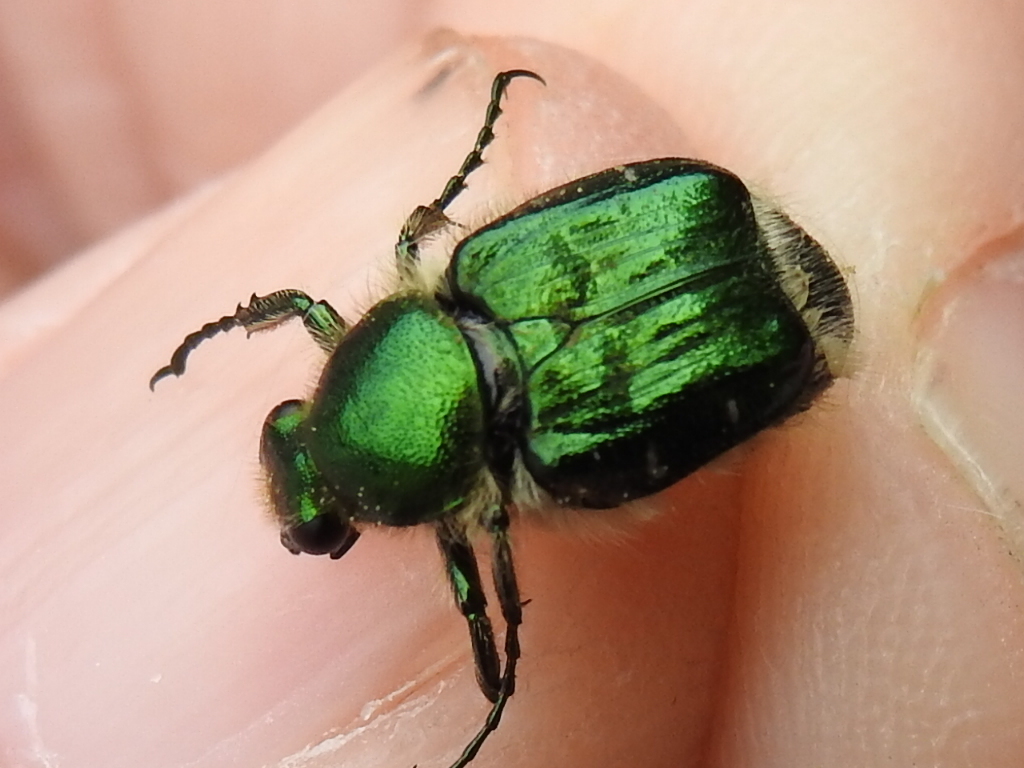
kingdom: Animalia
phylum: Arthropoda
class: Insecta
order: Coleoptera
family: Scarabaeidae
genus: Trichiotinus
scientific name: Trichiotinus lunulatus
